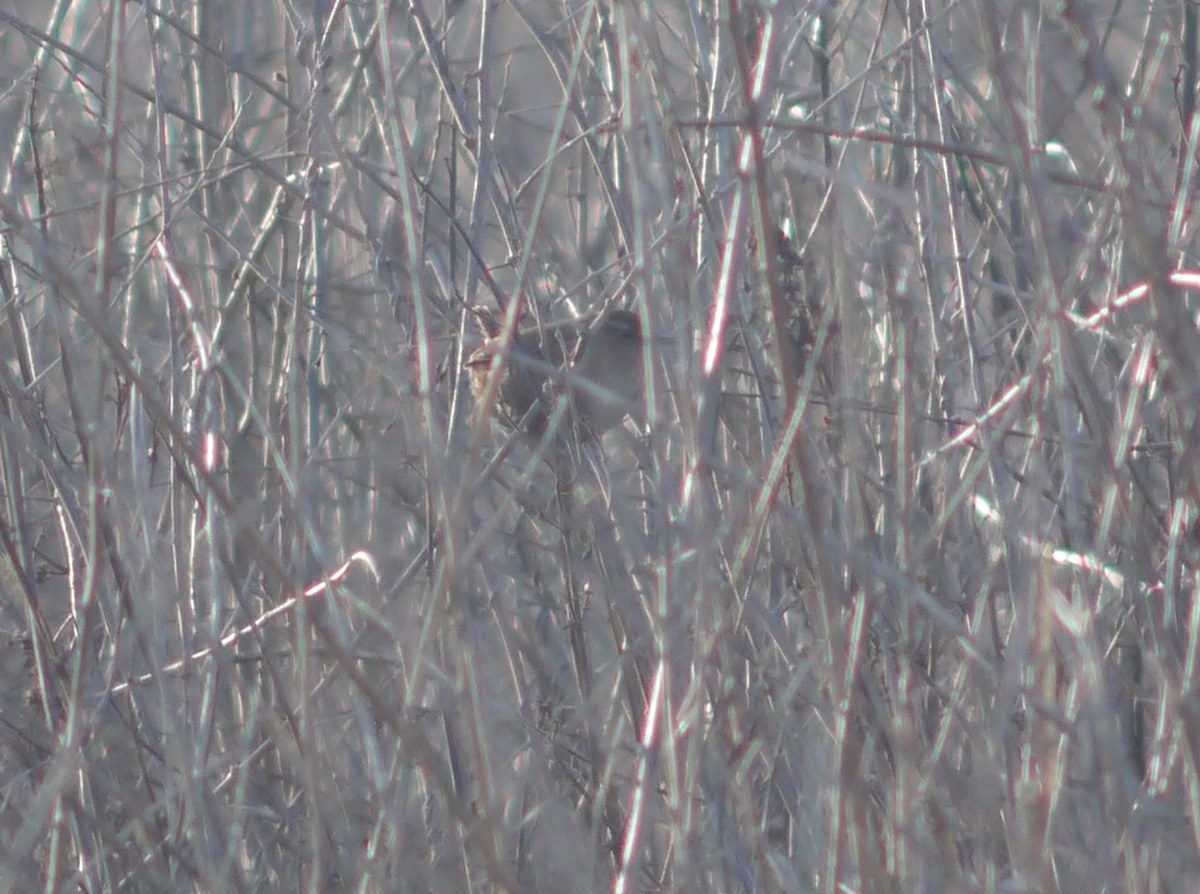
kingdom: Animalia
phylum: Chordata
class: Aves
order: Passeriformes
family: Troglodytidae
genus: Troglodytes
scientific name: Troglodytes troglodytes
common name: Eurasian wren
